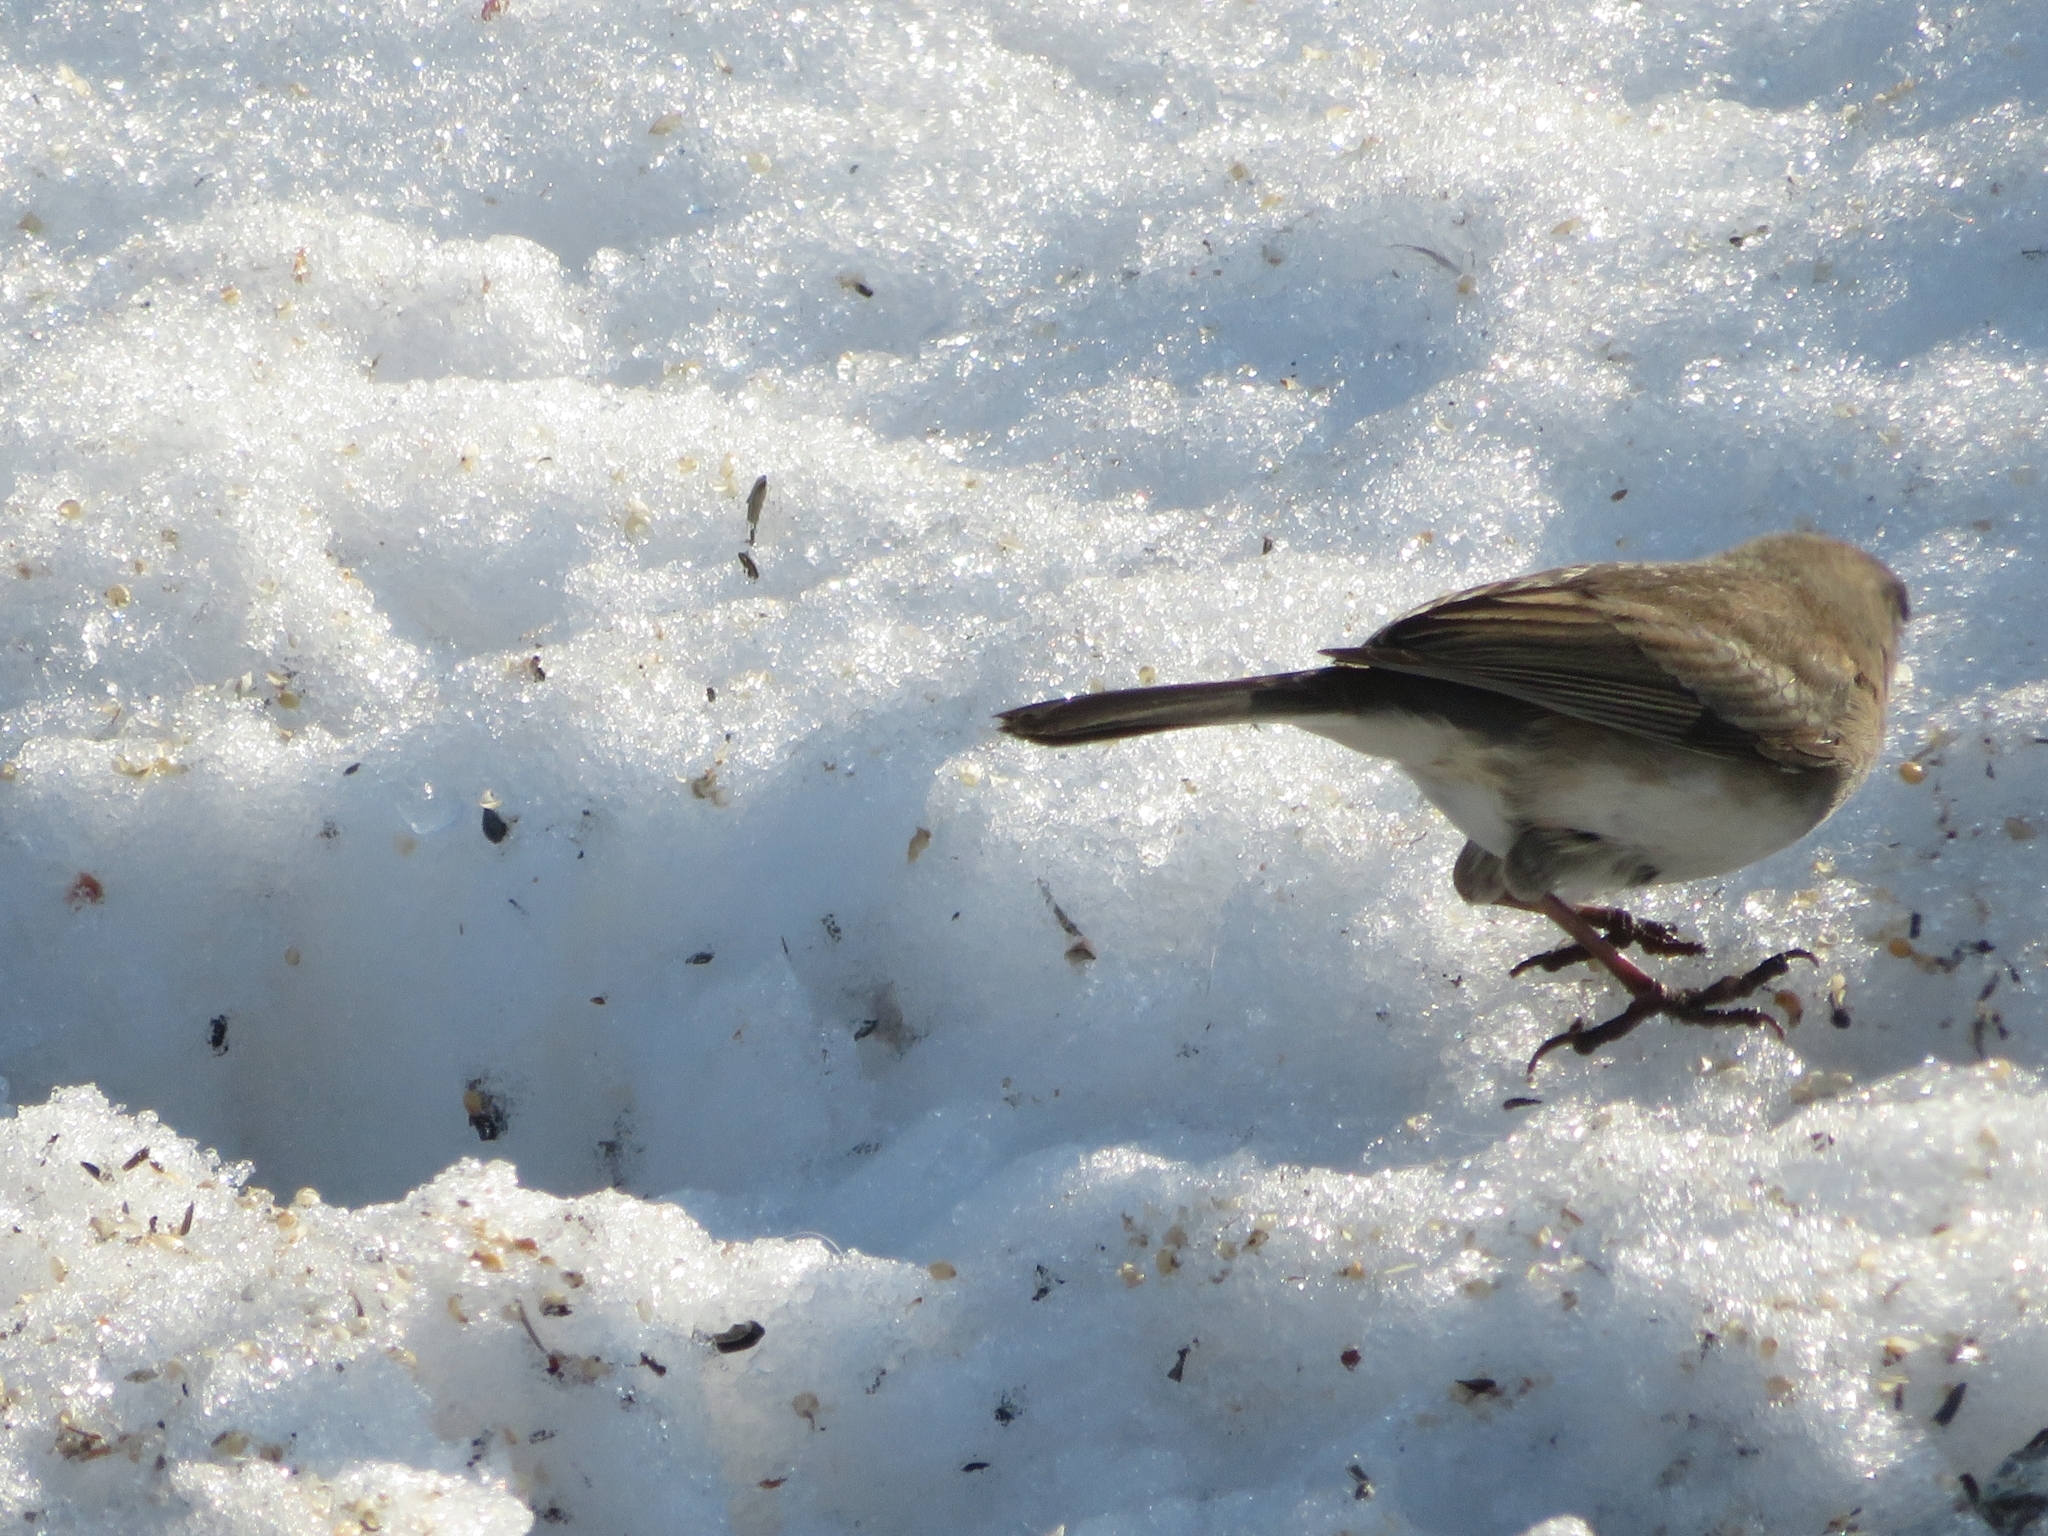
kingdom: Animalia
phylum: Chordata
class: Aves
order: Passeriformes
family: Passerellidae
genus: Junco
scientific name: Junco hyemalis
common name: Dark-eyed junco
